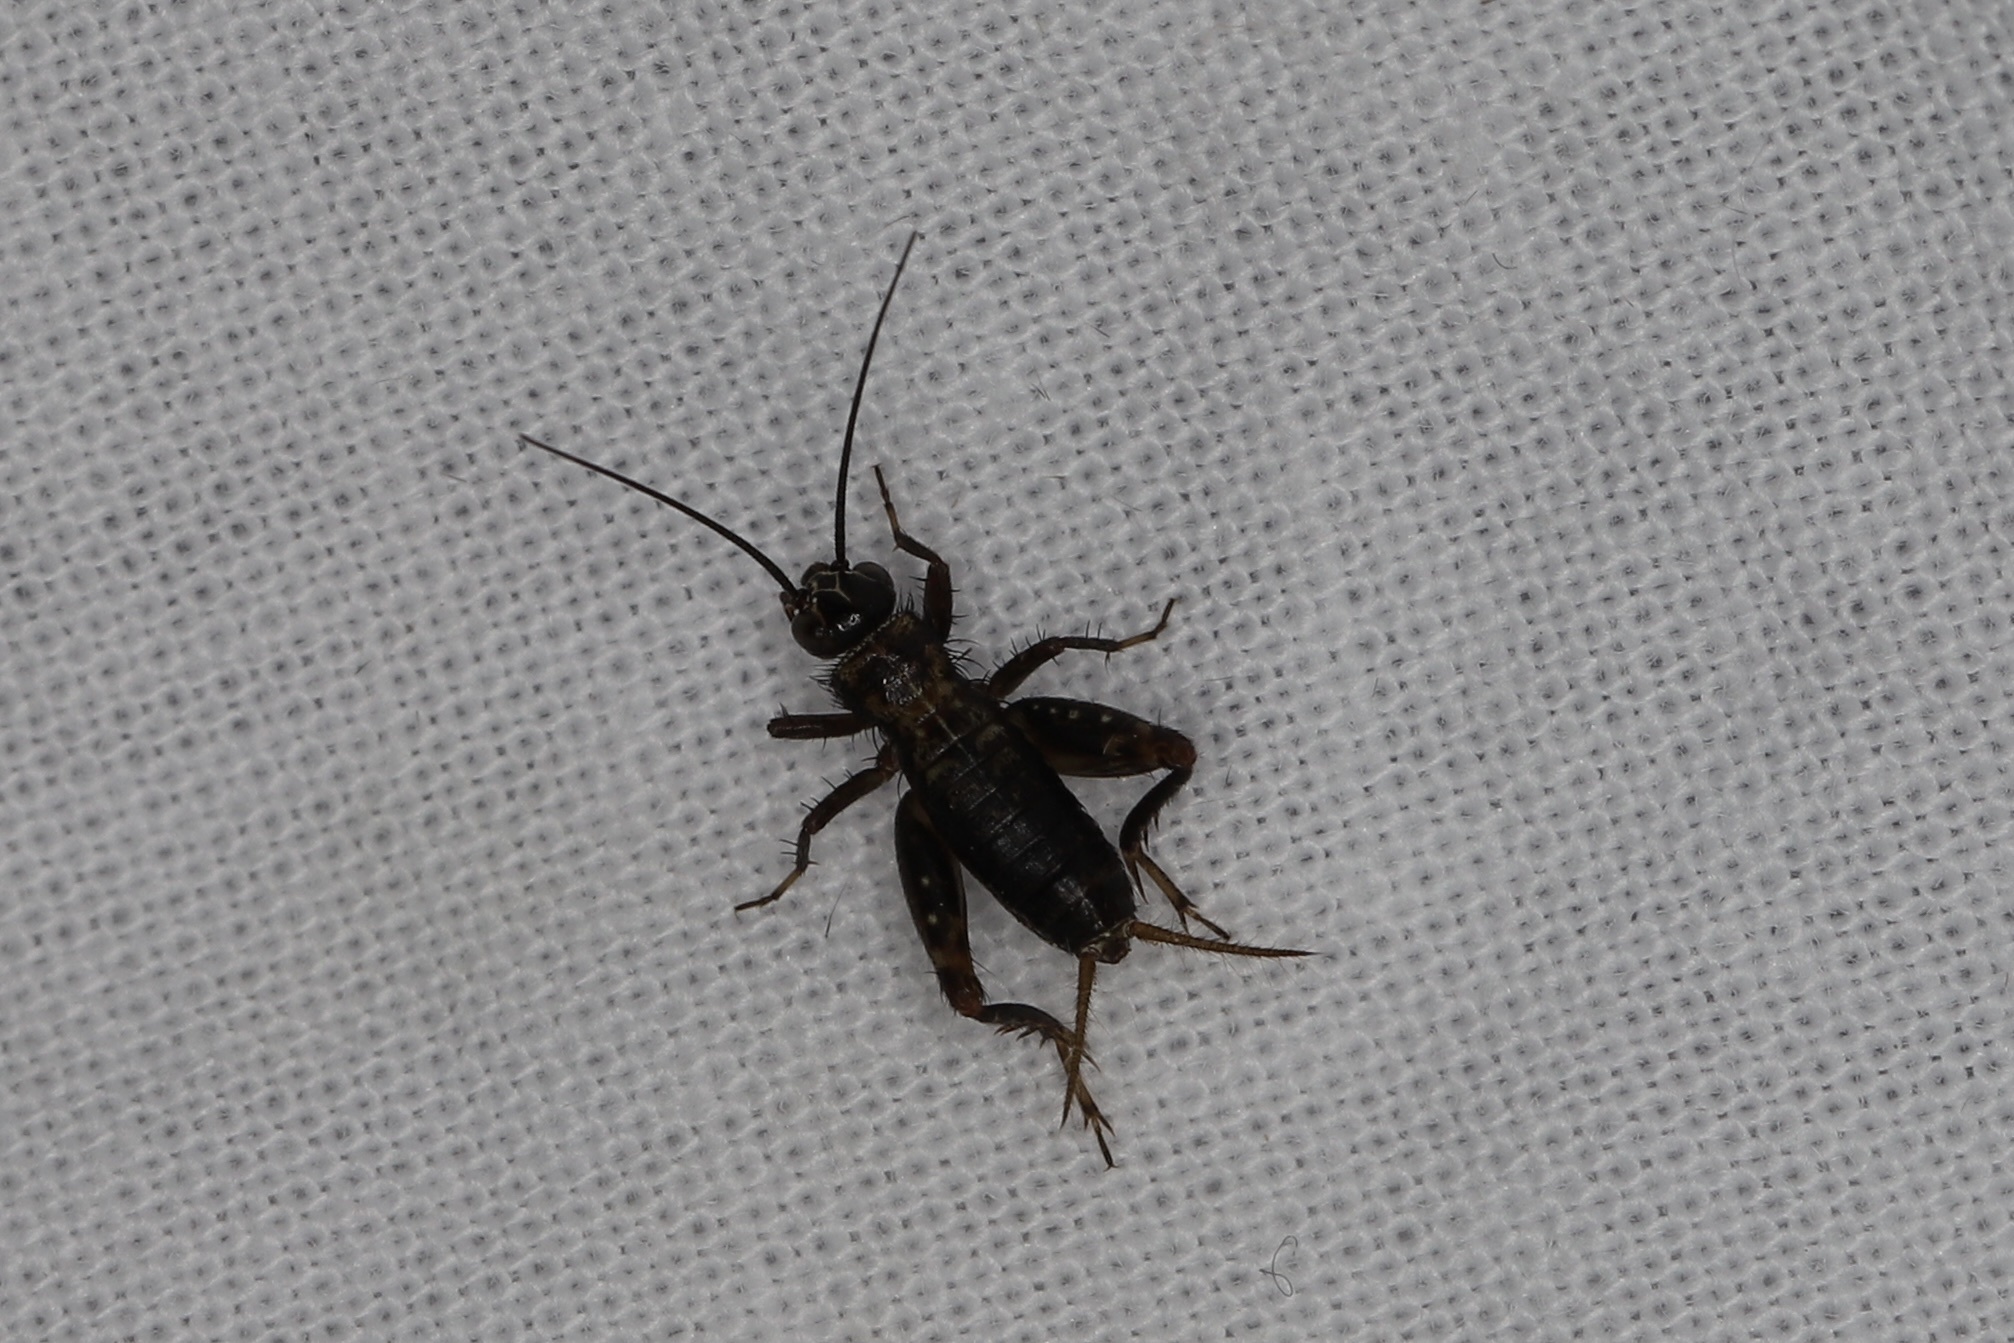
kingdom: Animalia
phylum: Arthropoda
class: Insecta
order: Orthoptera
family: Trigonidiidae
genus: Nemobius
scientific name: Nemobius sylvestris
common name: Wood-cricket
